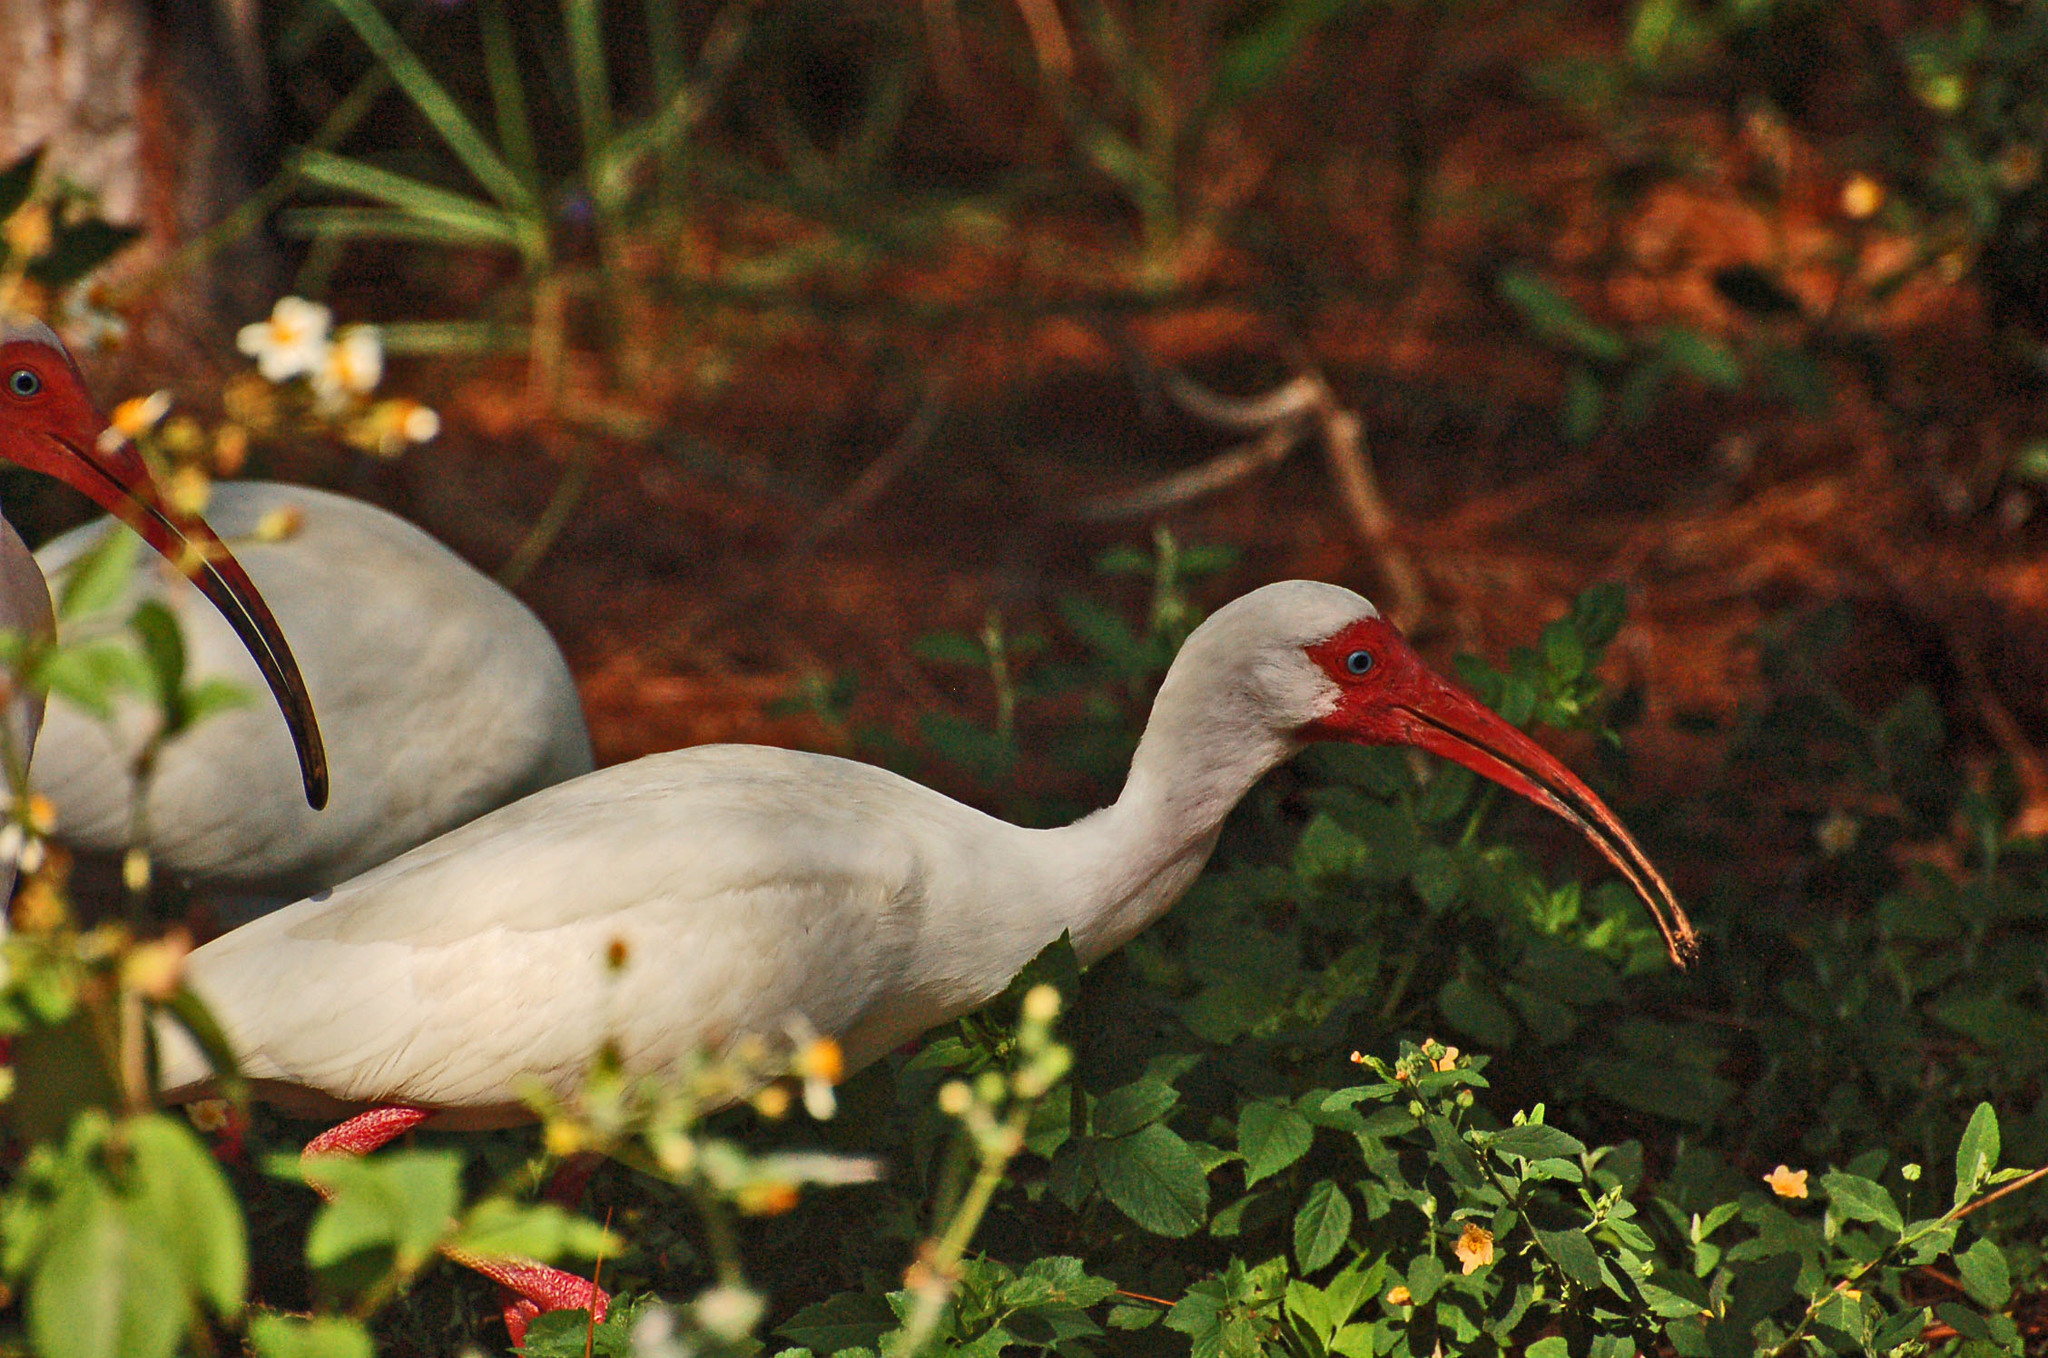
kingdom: Animalia
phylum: Chordata
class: Aves
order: Pelecaniformes
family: Threskiornithidae
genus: Eudocimus
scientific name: Eudocimus albus
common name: White ibis
